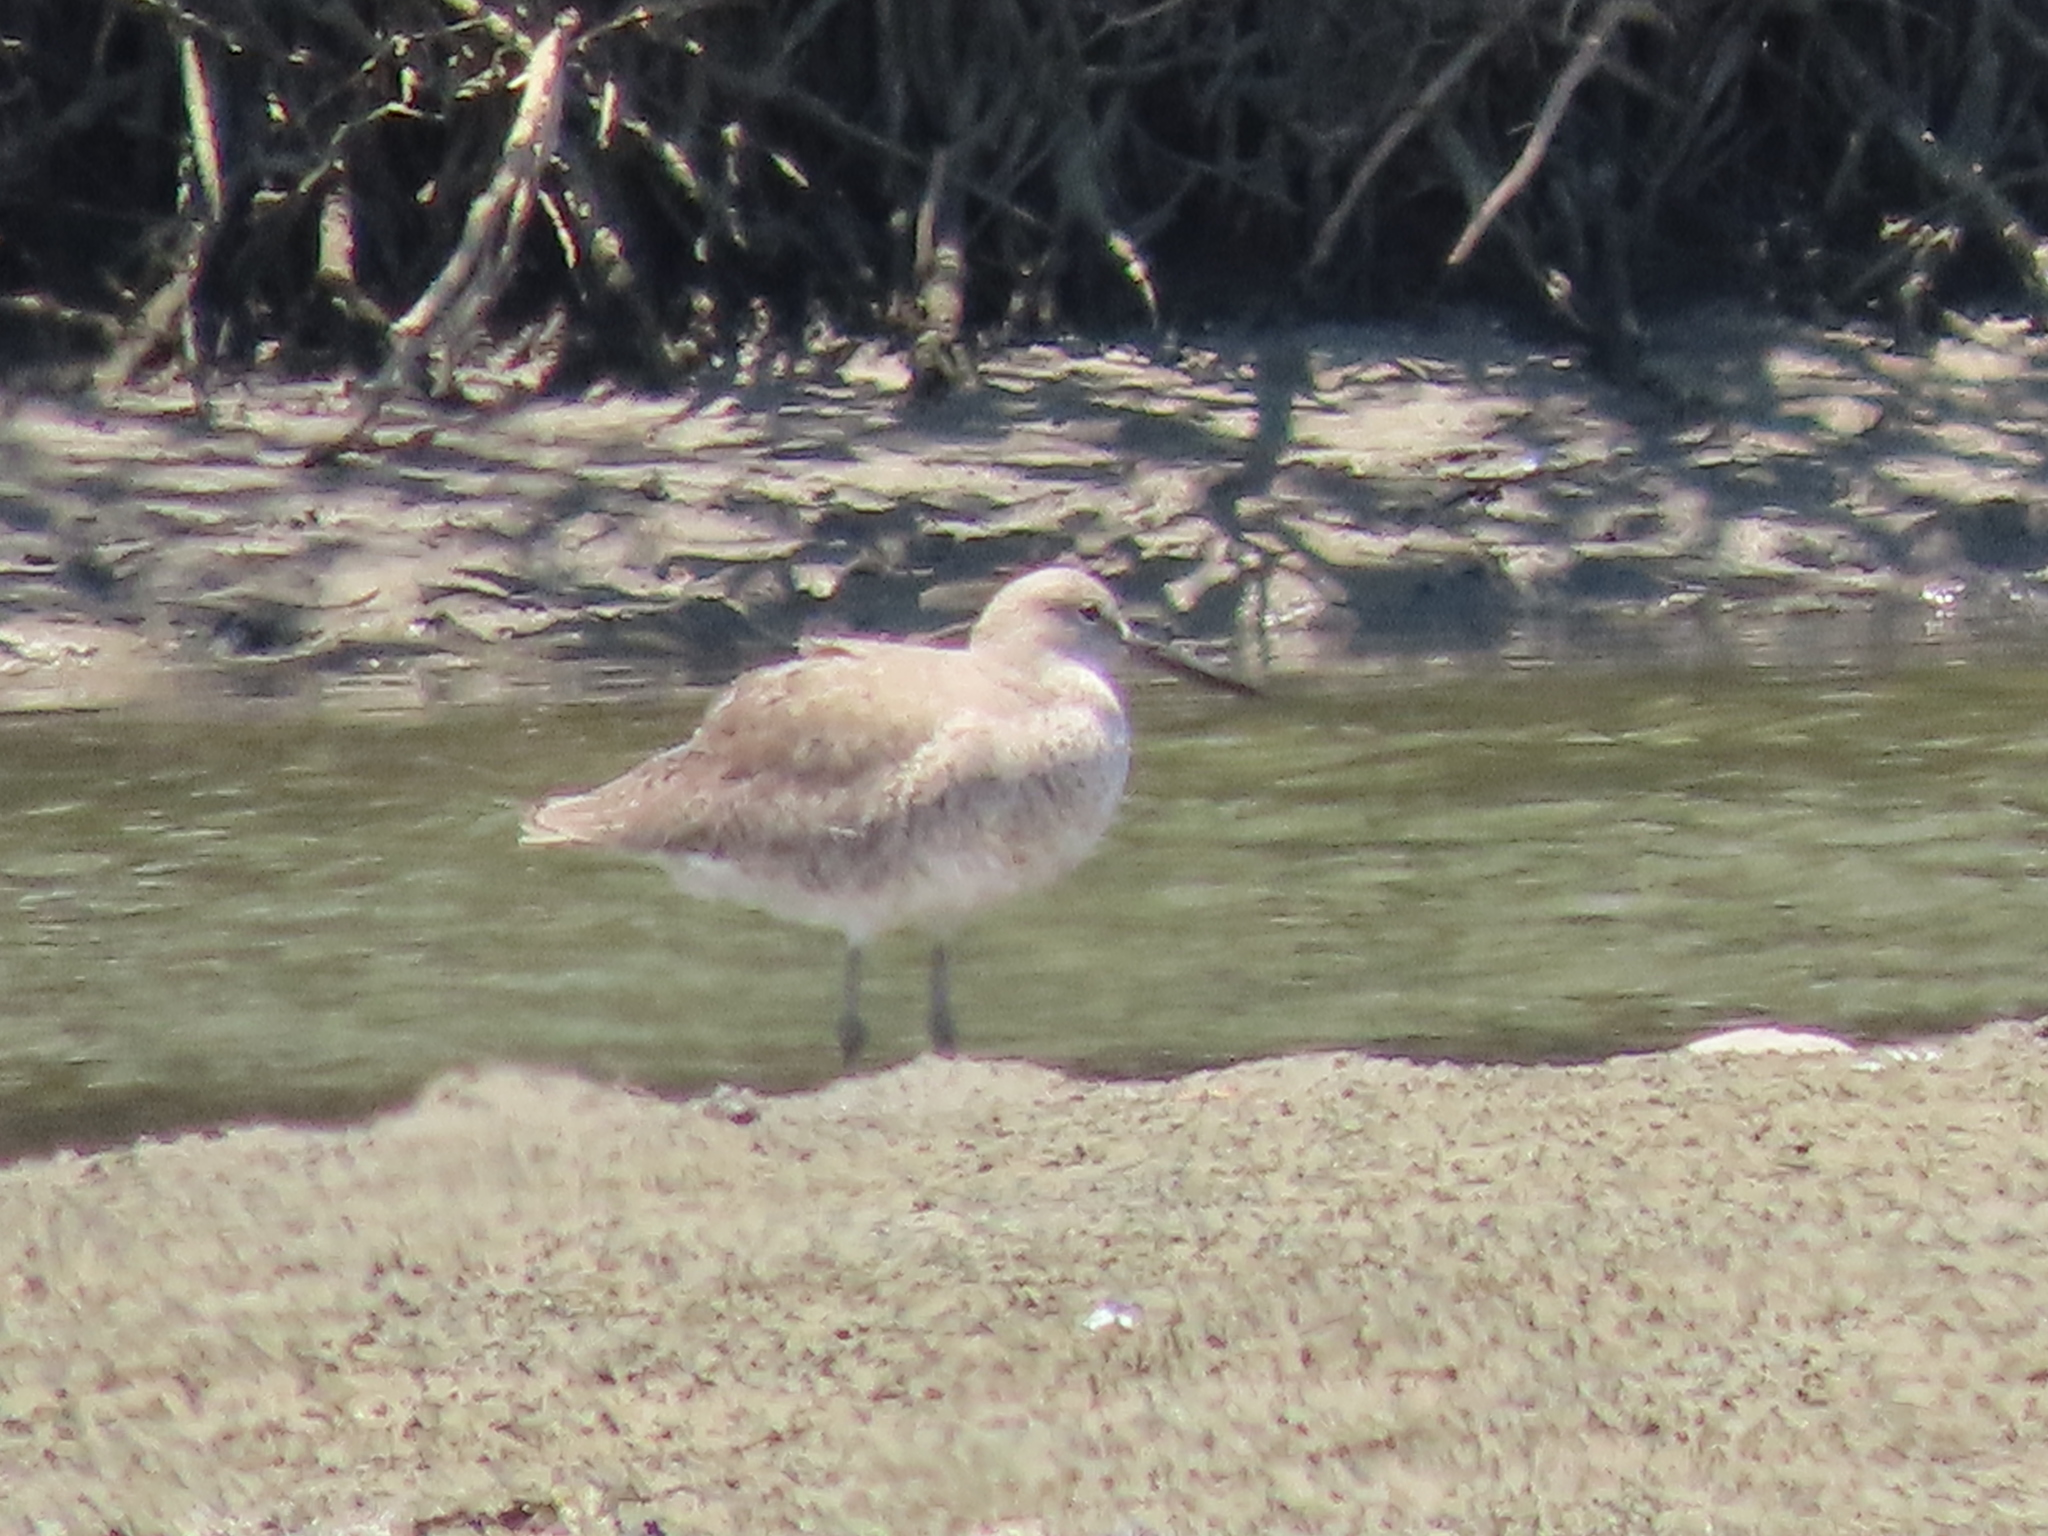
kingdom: Animalia
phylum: Chordata
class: Aves
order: Charadriiformes
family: Scolopacidae
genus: Tringa
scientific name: Tringa semipalmata
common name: Willet
